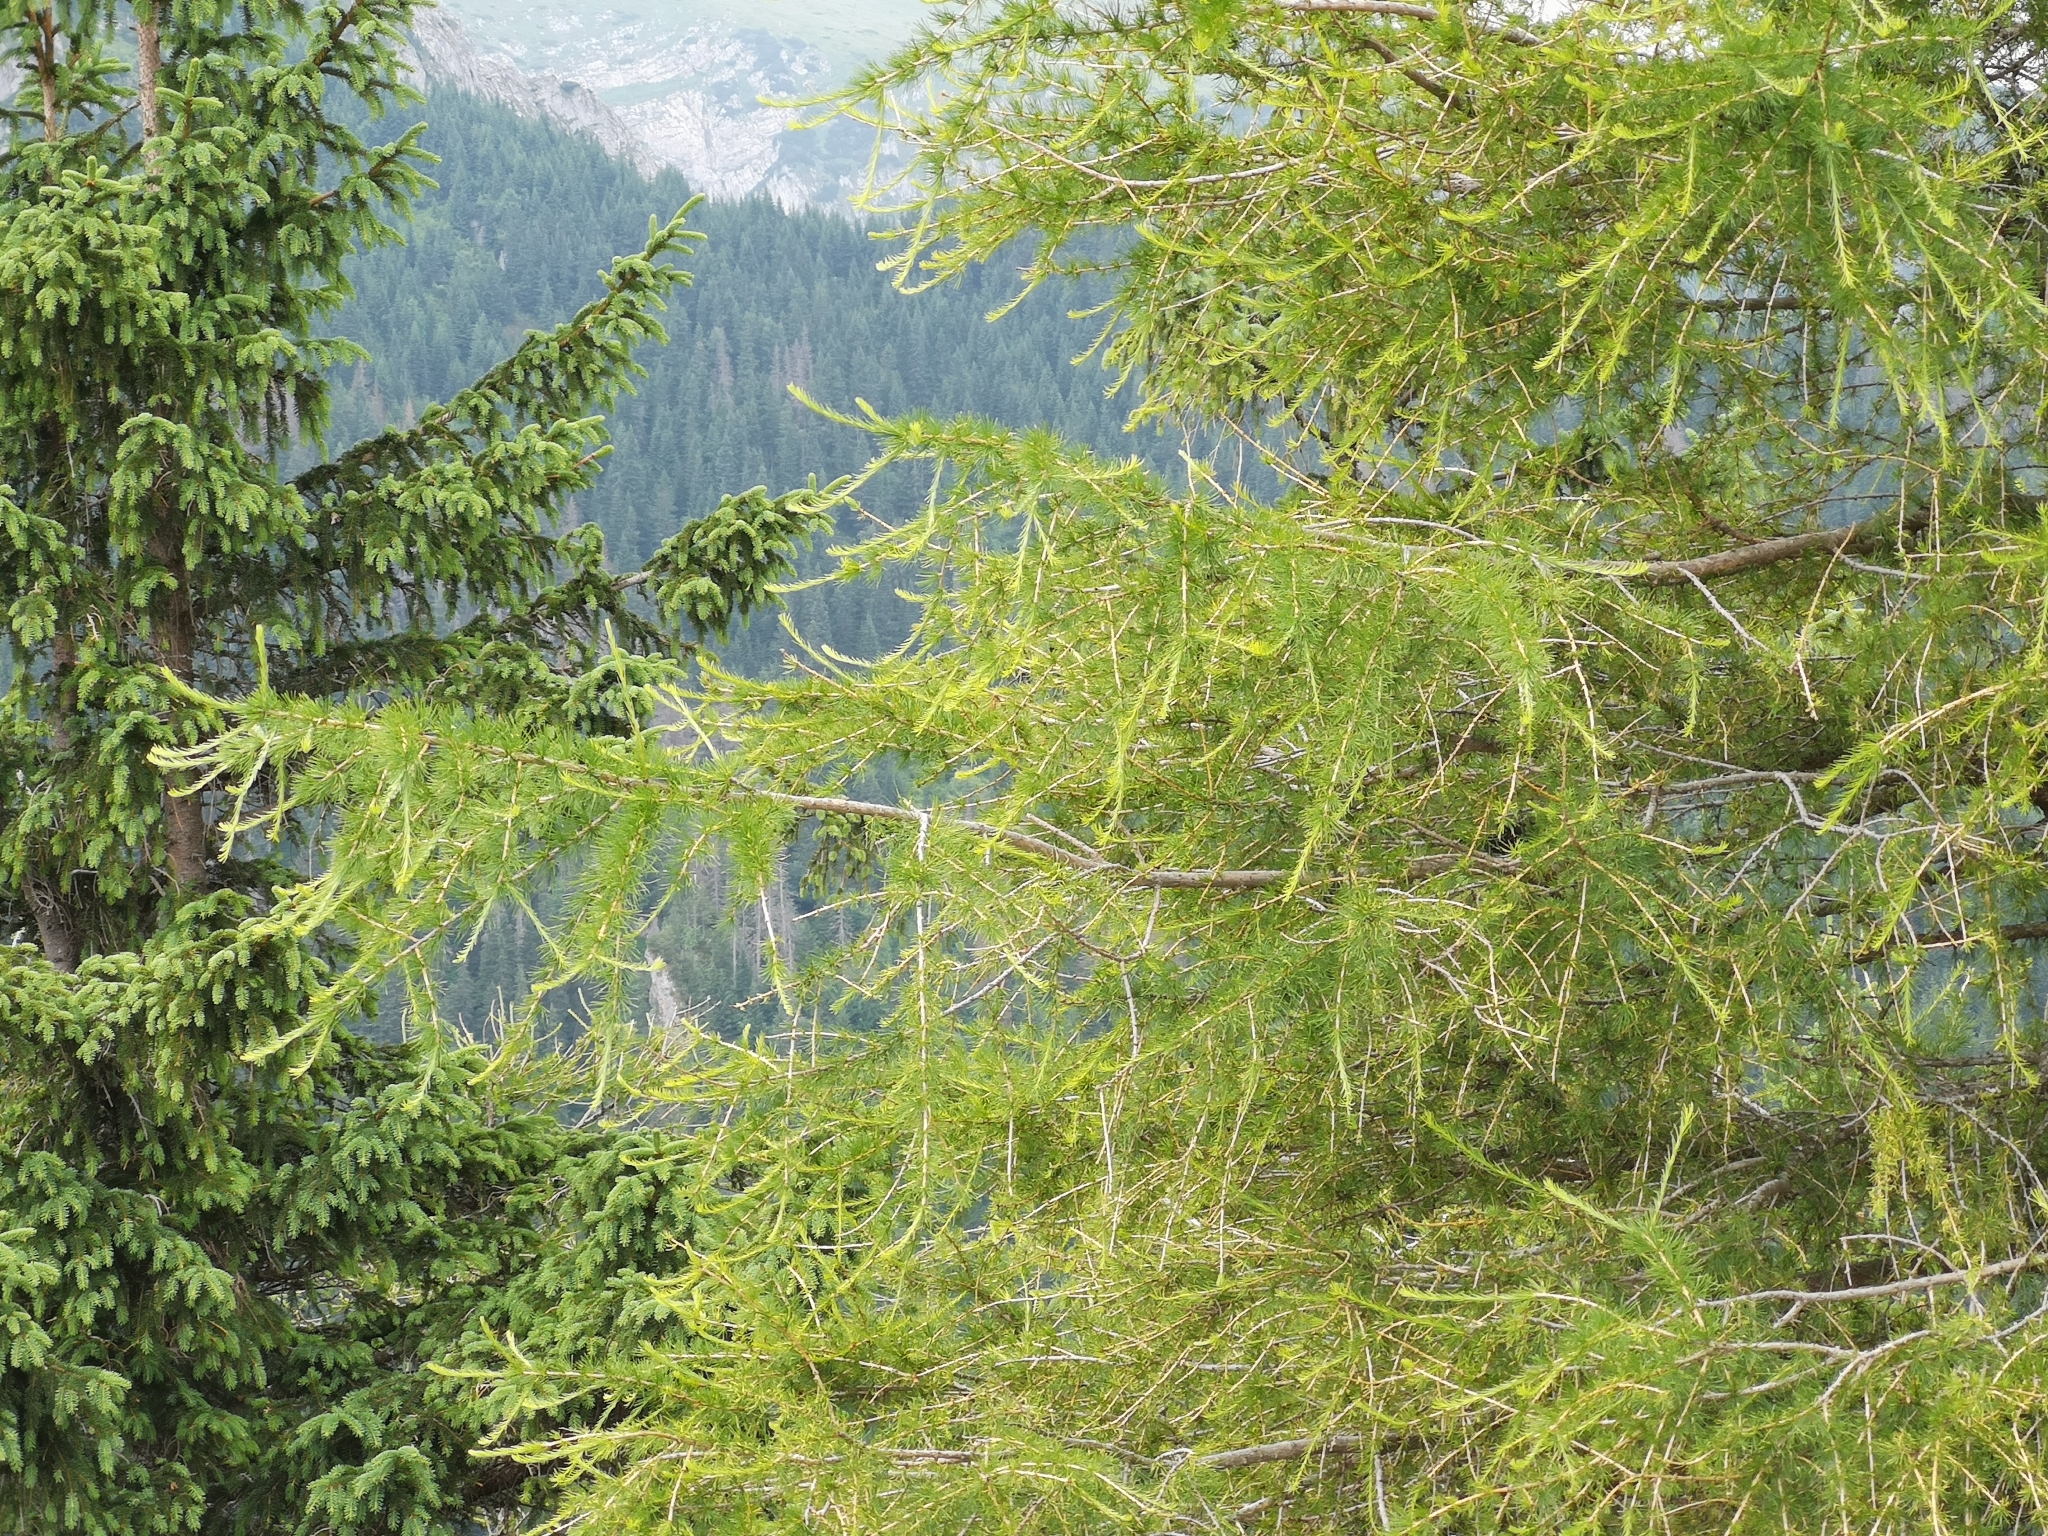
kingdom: Plantae
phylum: Tracheophyta
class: Pinopsida
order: Pinales
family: Pinaceae
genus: Larix
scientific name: Larix decidua
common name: European larch
